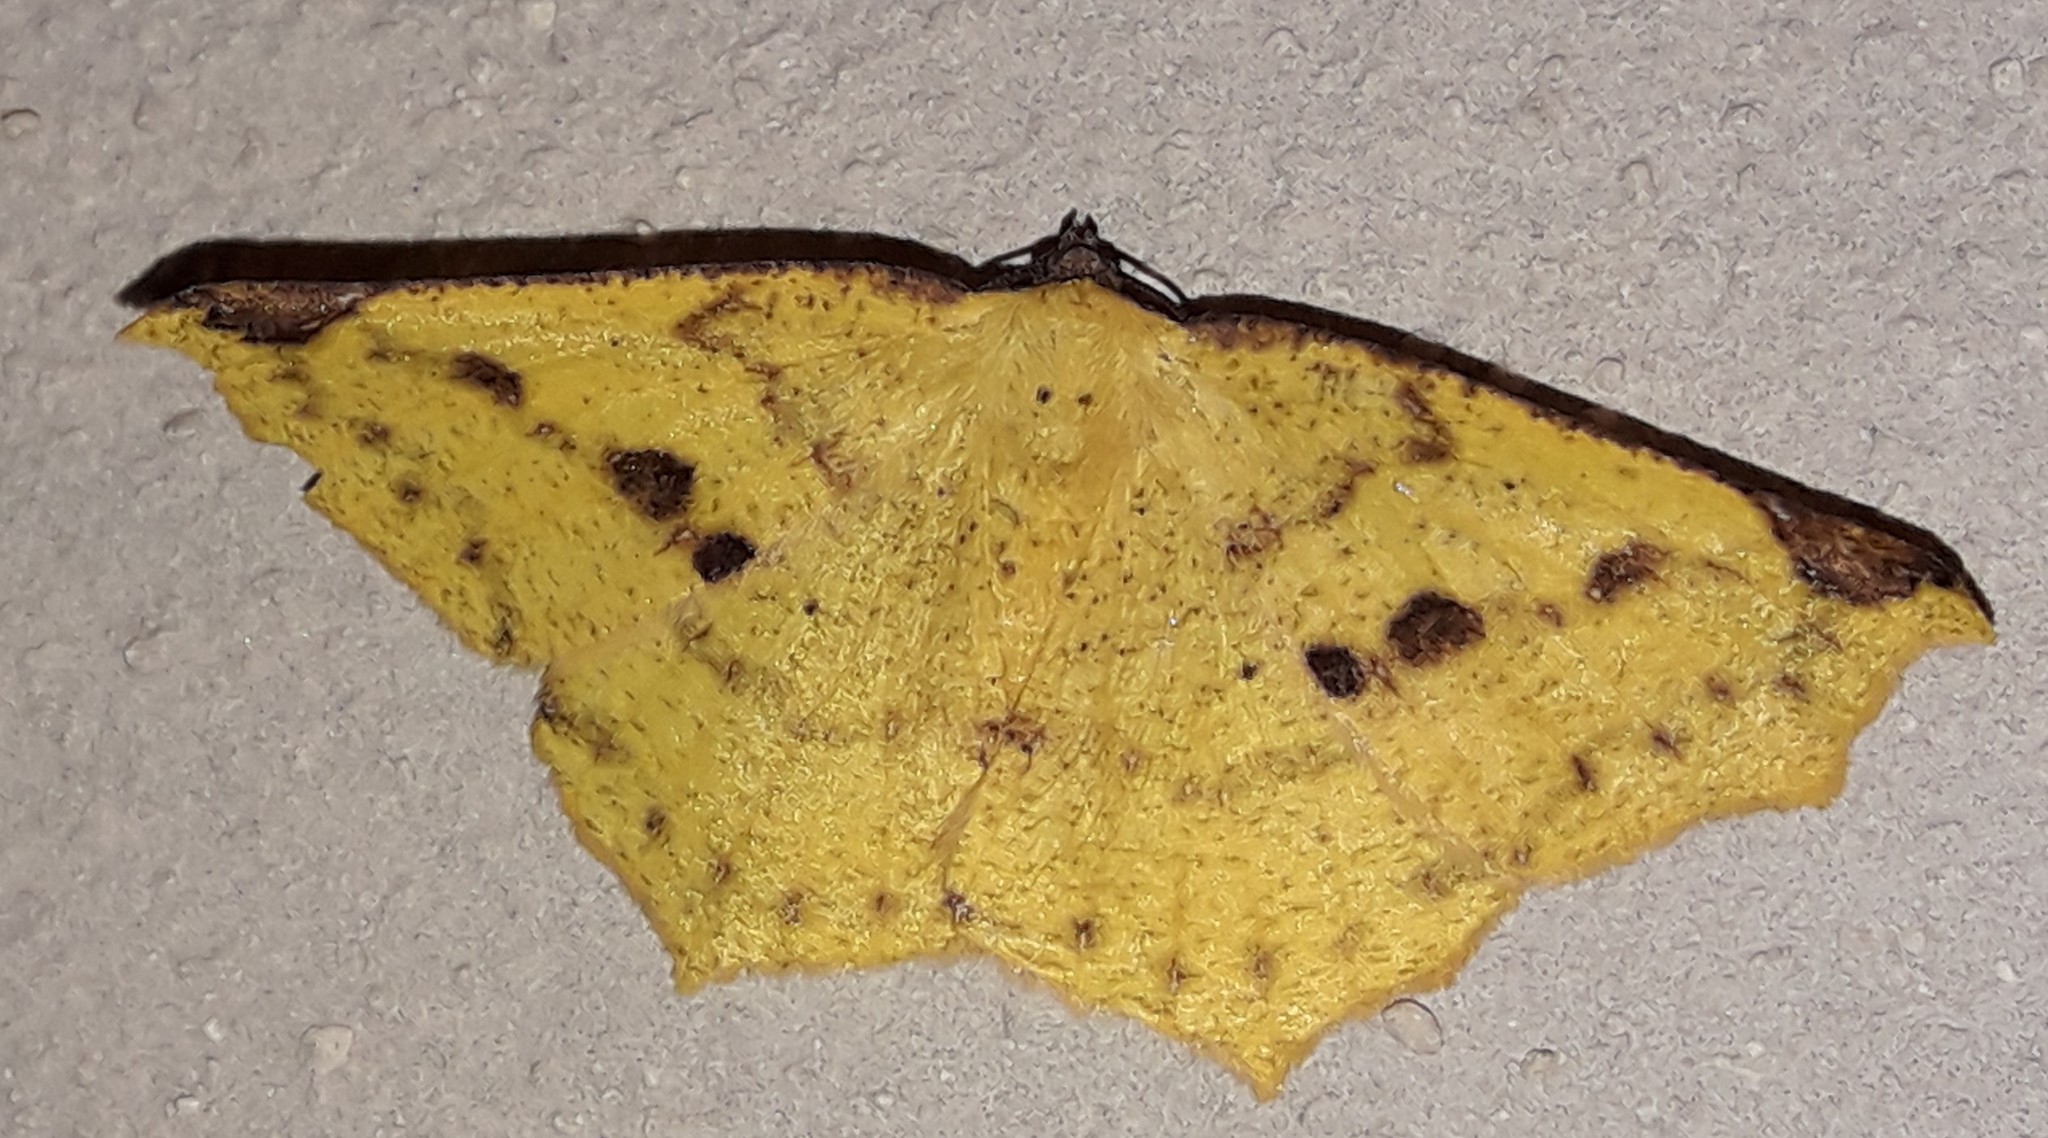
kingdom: Animalia
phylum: Arthropoda
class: Insecta
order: Lepidoptera
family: Geometridae
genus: Antepione
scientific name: Antepione thisoaria
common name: Variable antipione
